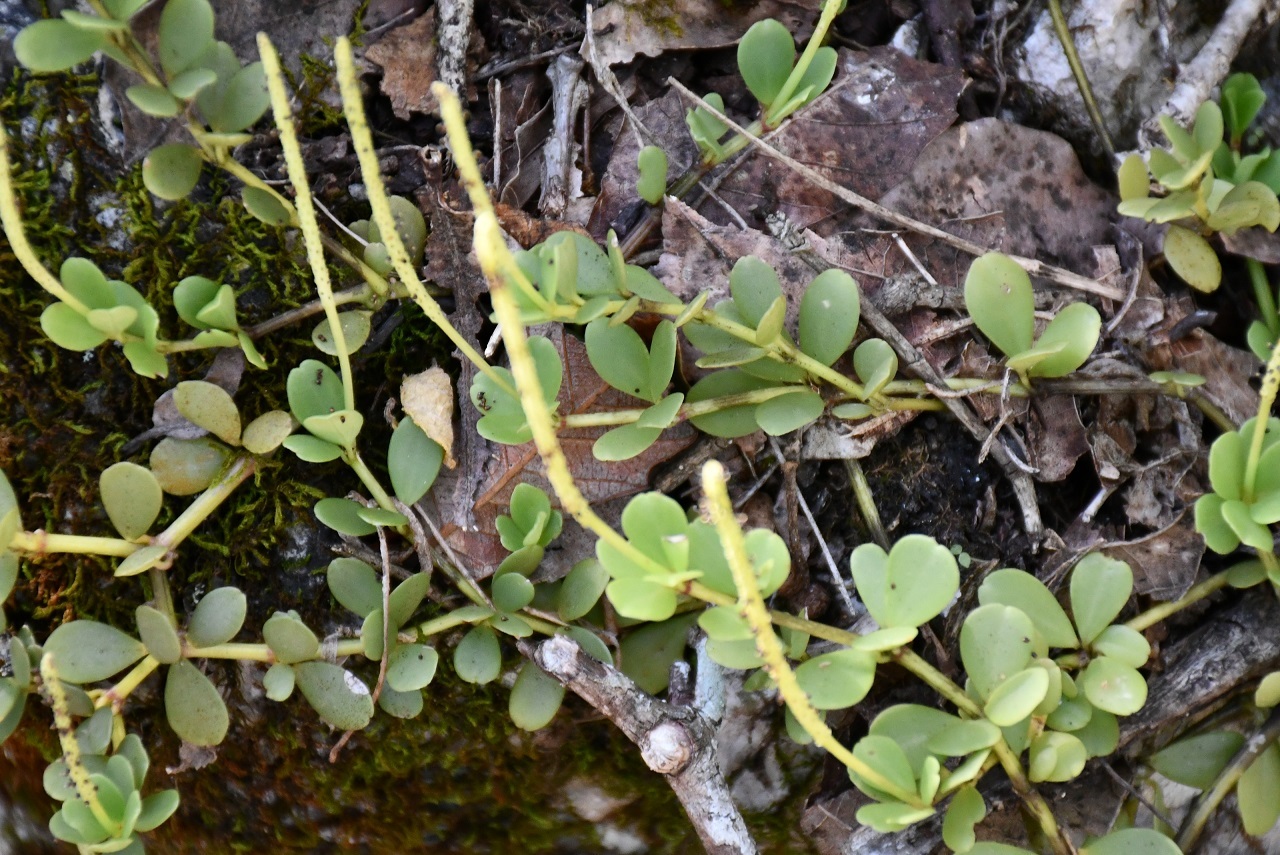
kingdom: Plantae
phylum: Tracheophyta
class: Magnoliopsida
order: Piperales
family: Piperaceae
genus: Peperomia
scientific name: Peperomia quadrifolia
